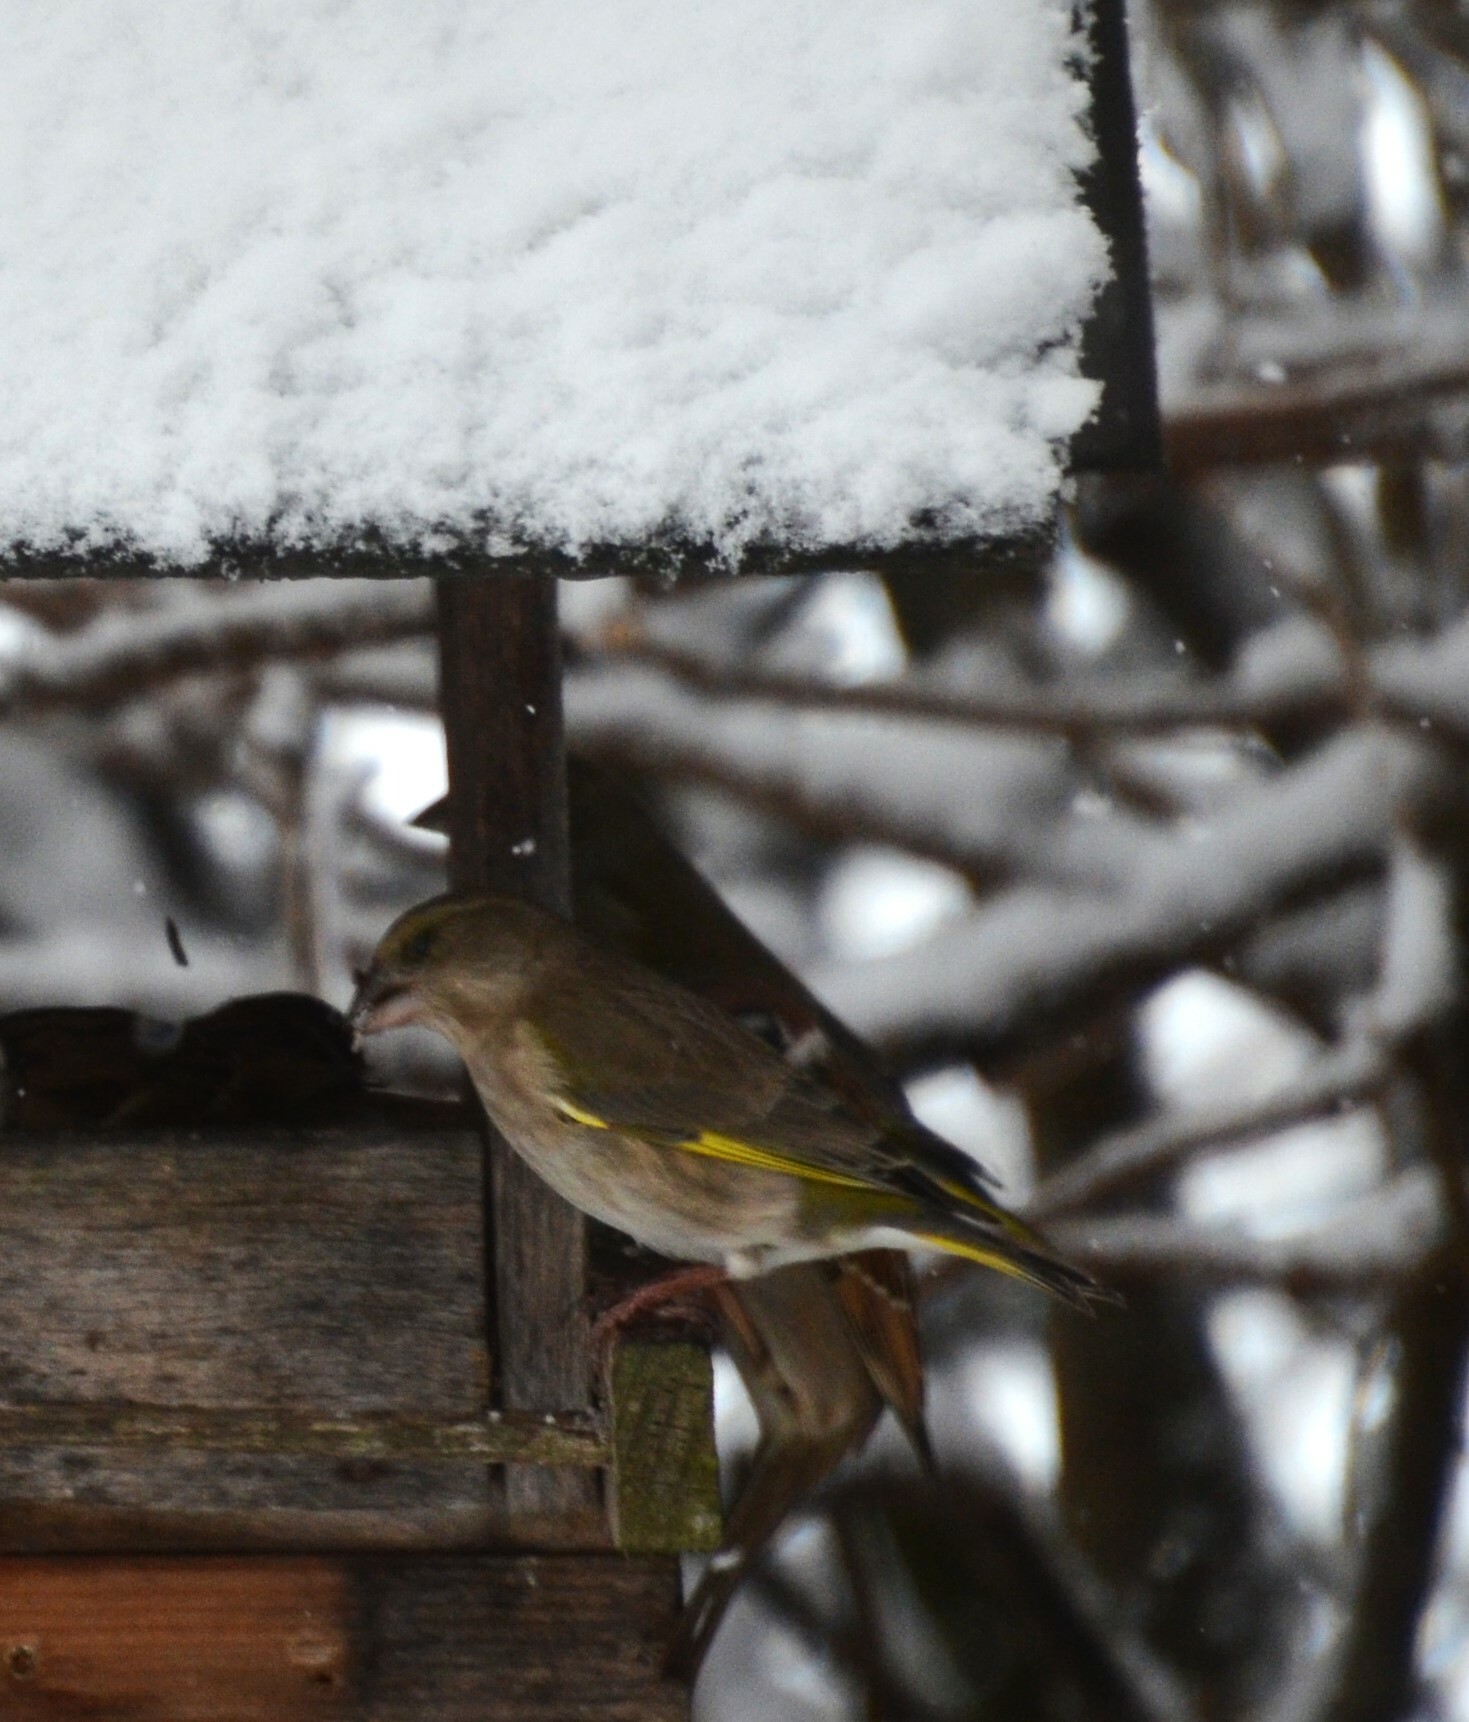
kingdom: Plantae
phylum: Tracheophyta
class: Liliopsida
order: Poales
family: Poaceae
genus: Chloris
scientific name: Chloris chloris
